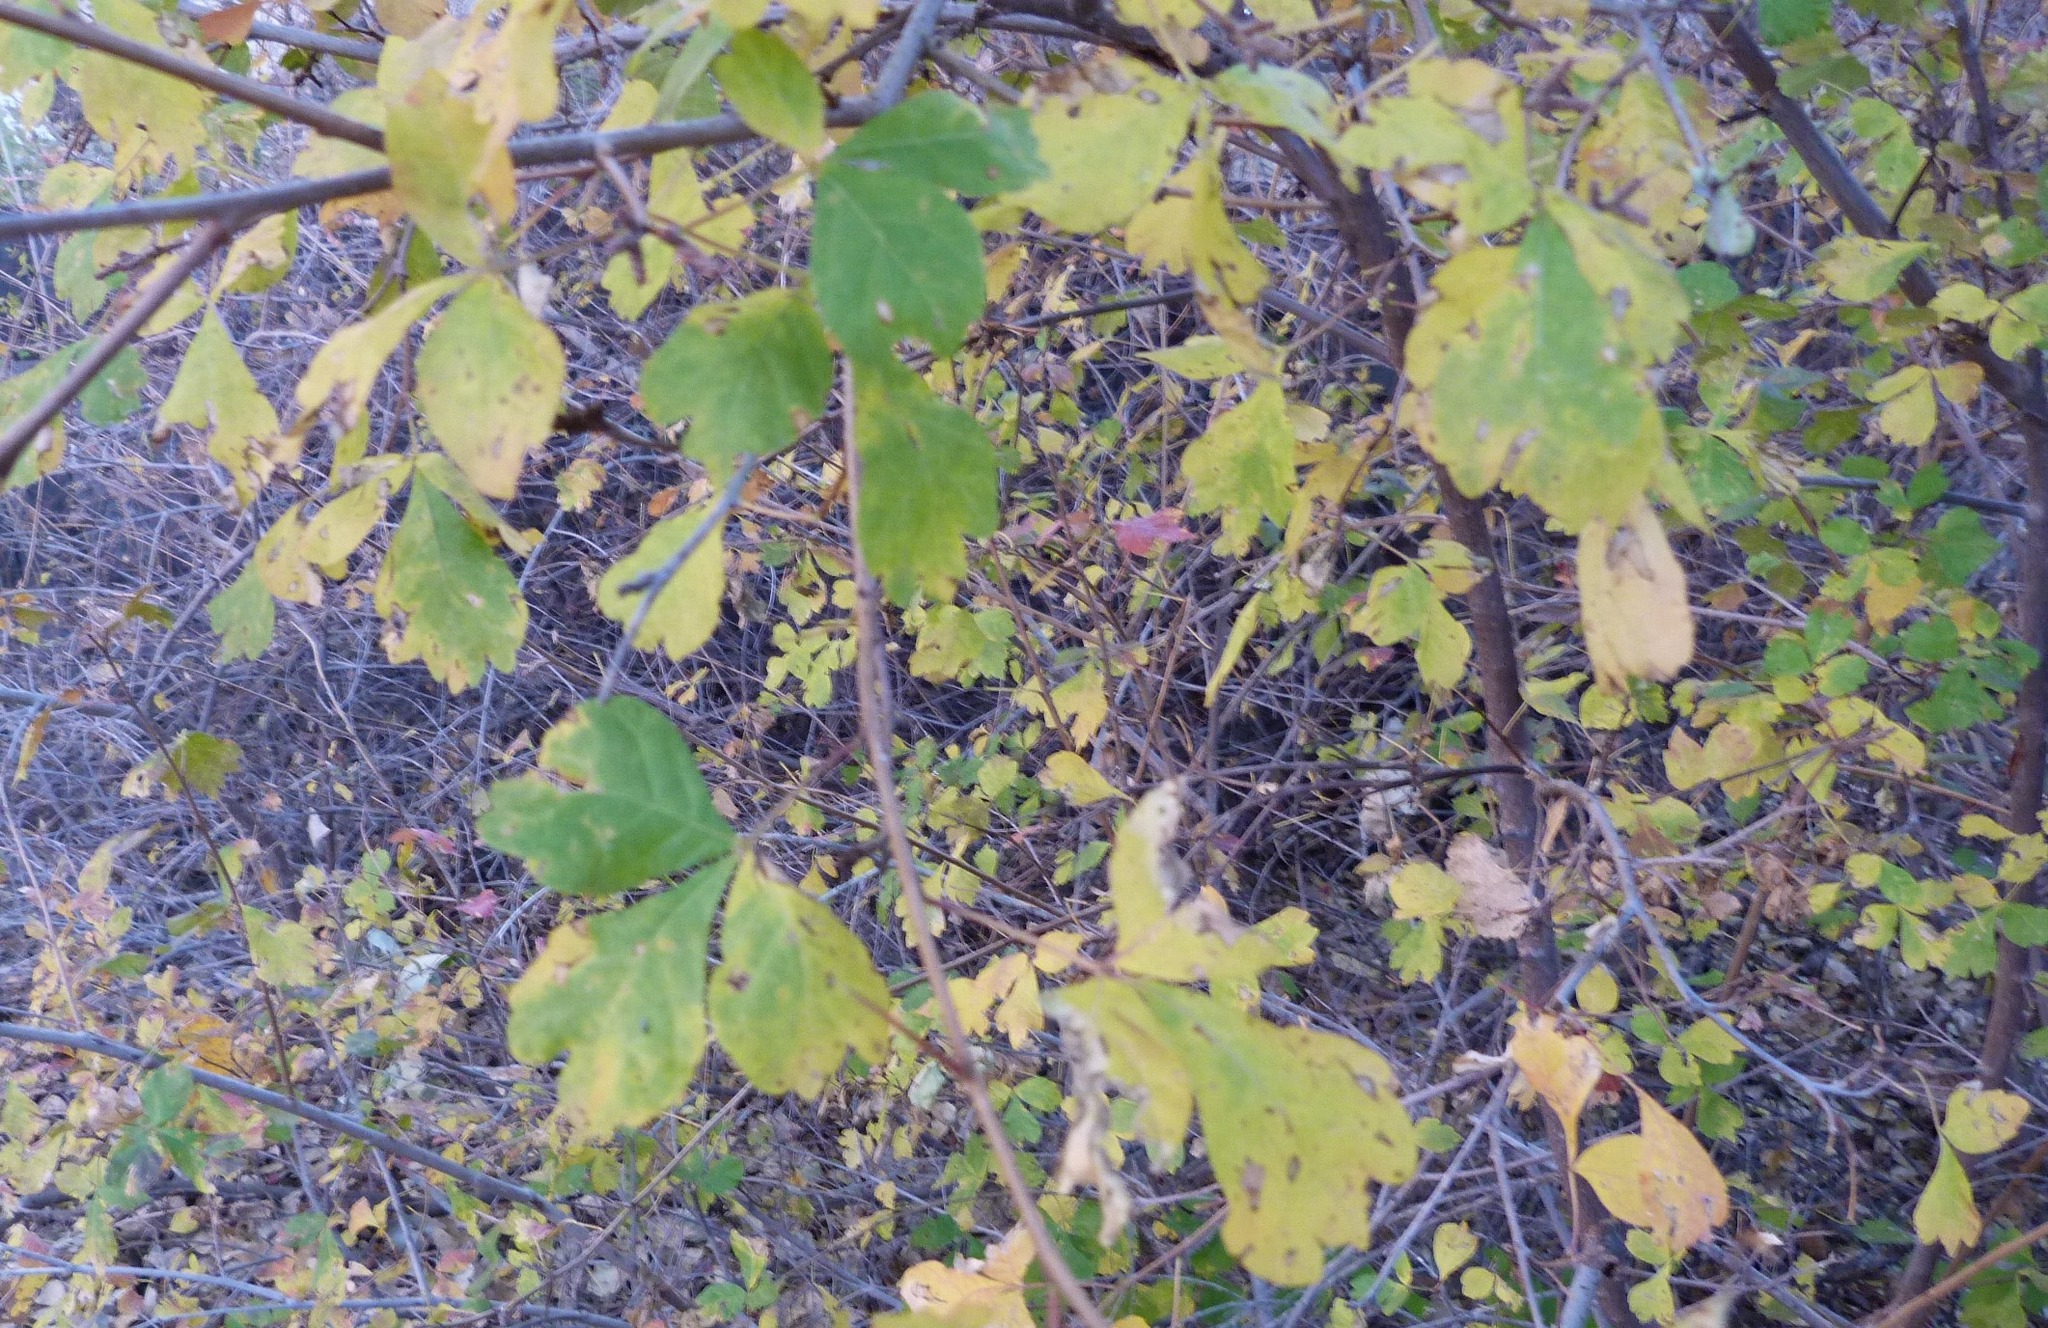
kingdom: Plantae
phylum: Tracheophyta
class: Magnoliopsida
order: Sapindales
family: Anacardiaceae
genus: Rhus
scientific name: Rhus aromatica
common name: Aromatic sumac
